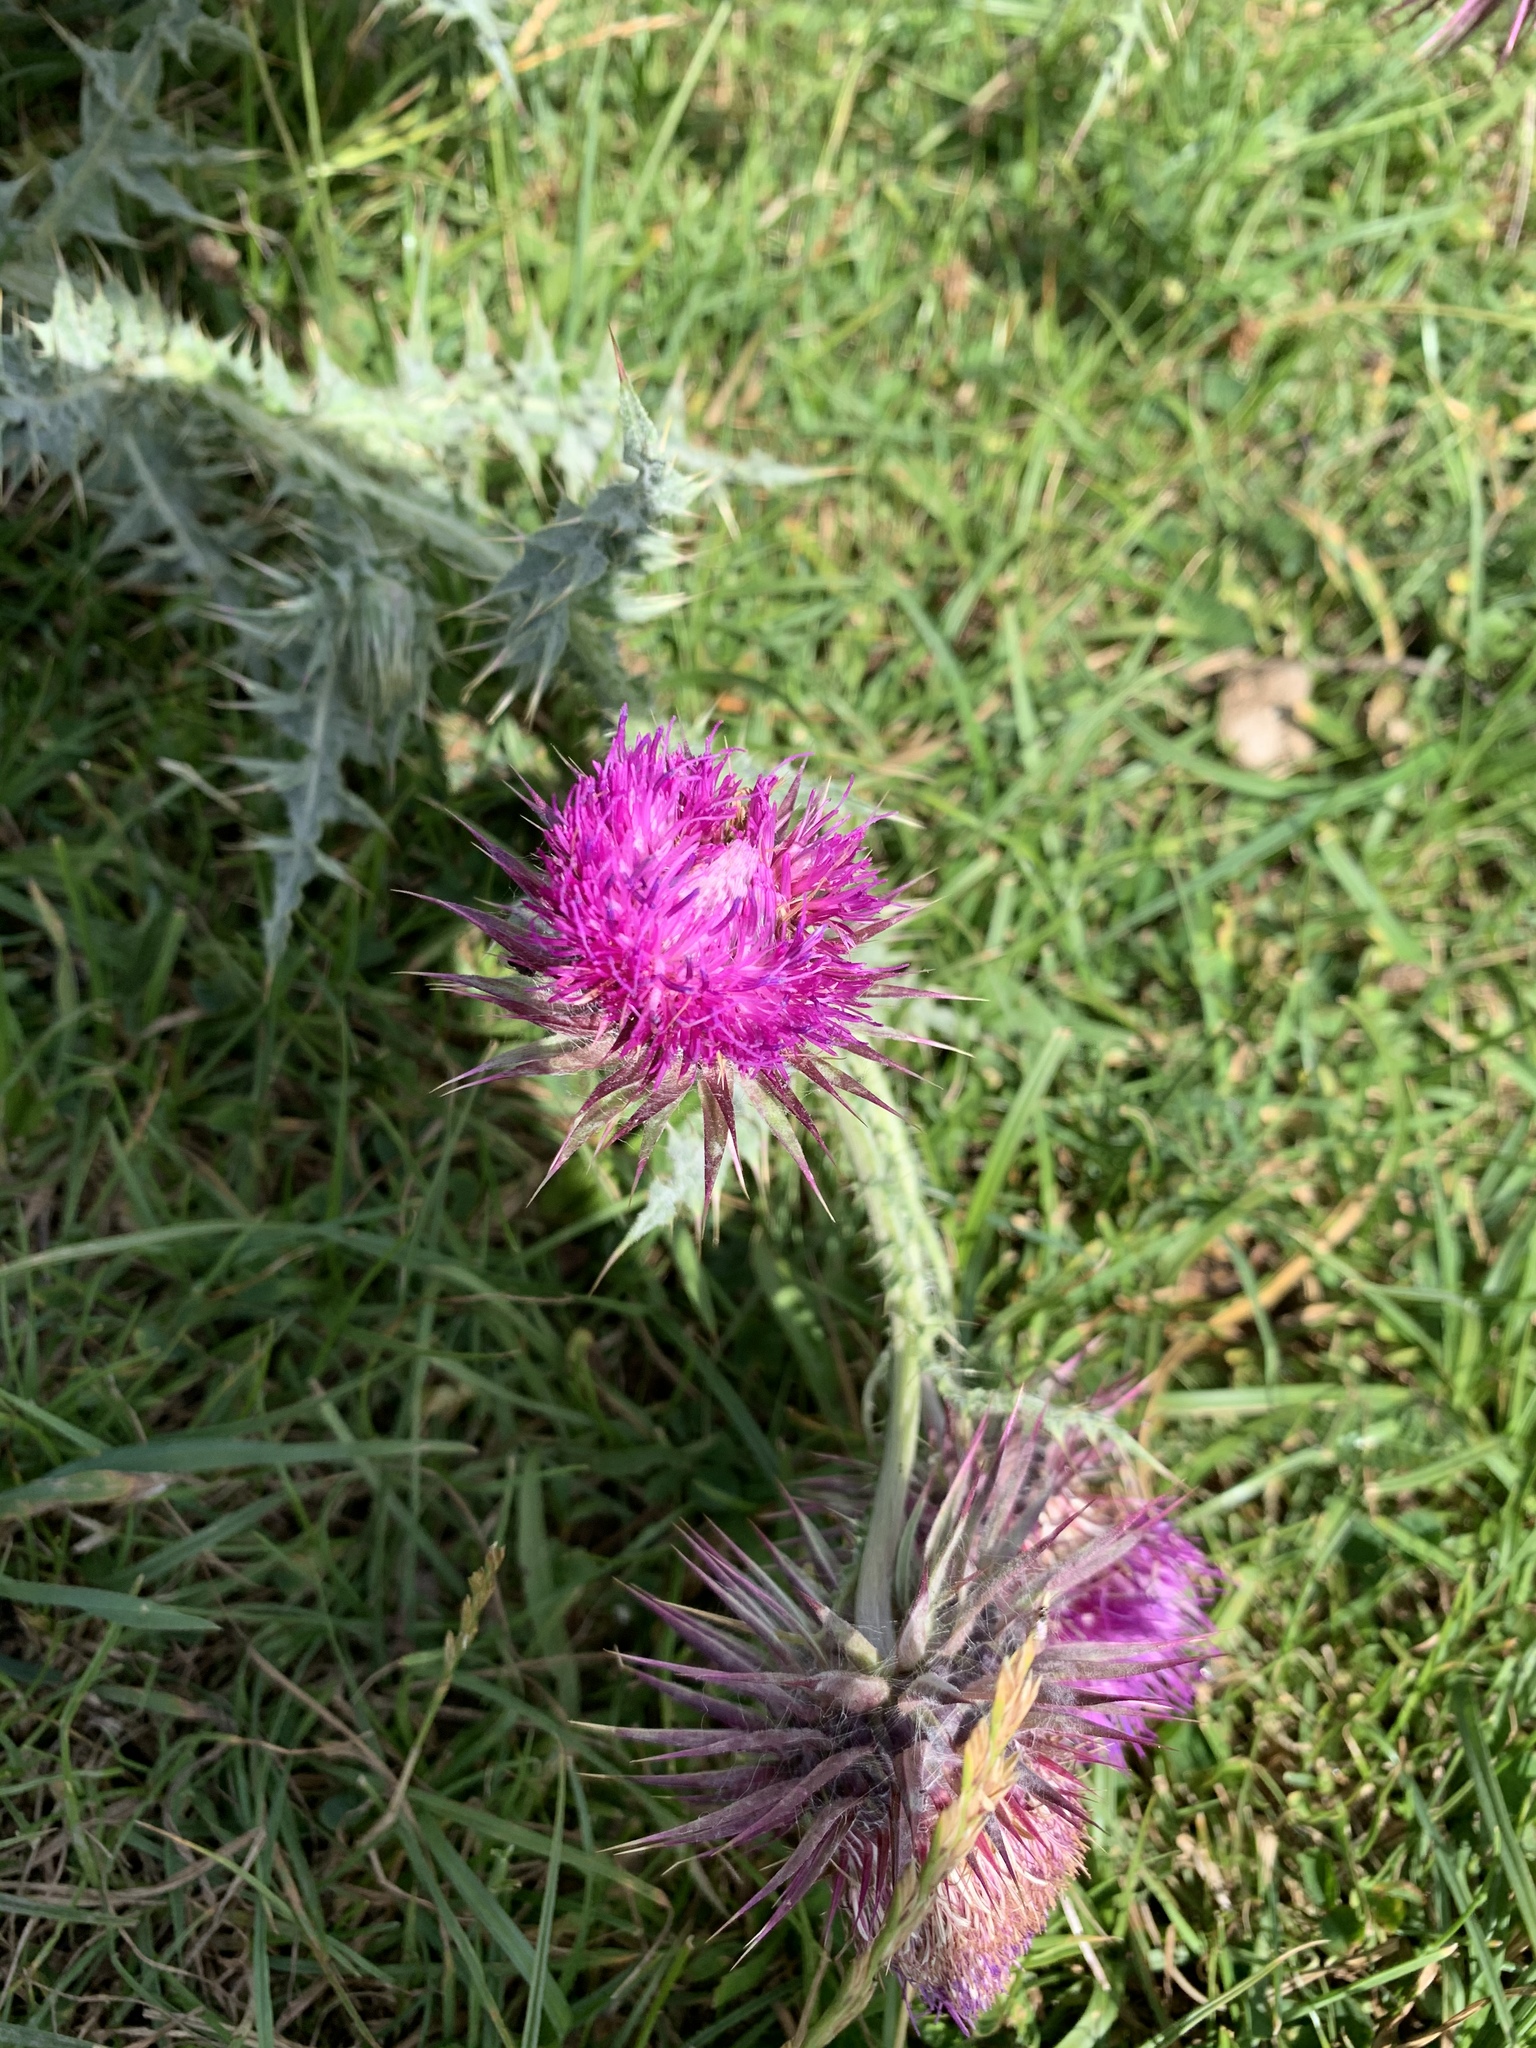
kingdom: Plantae
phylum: Tracheophyta
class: Magnoliopsida
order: Asterales
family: Asteraceae
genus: Carduus
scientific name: Carduus nutans
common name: Musk thistle
